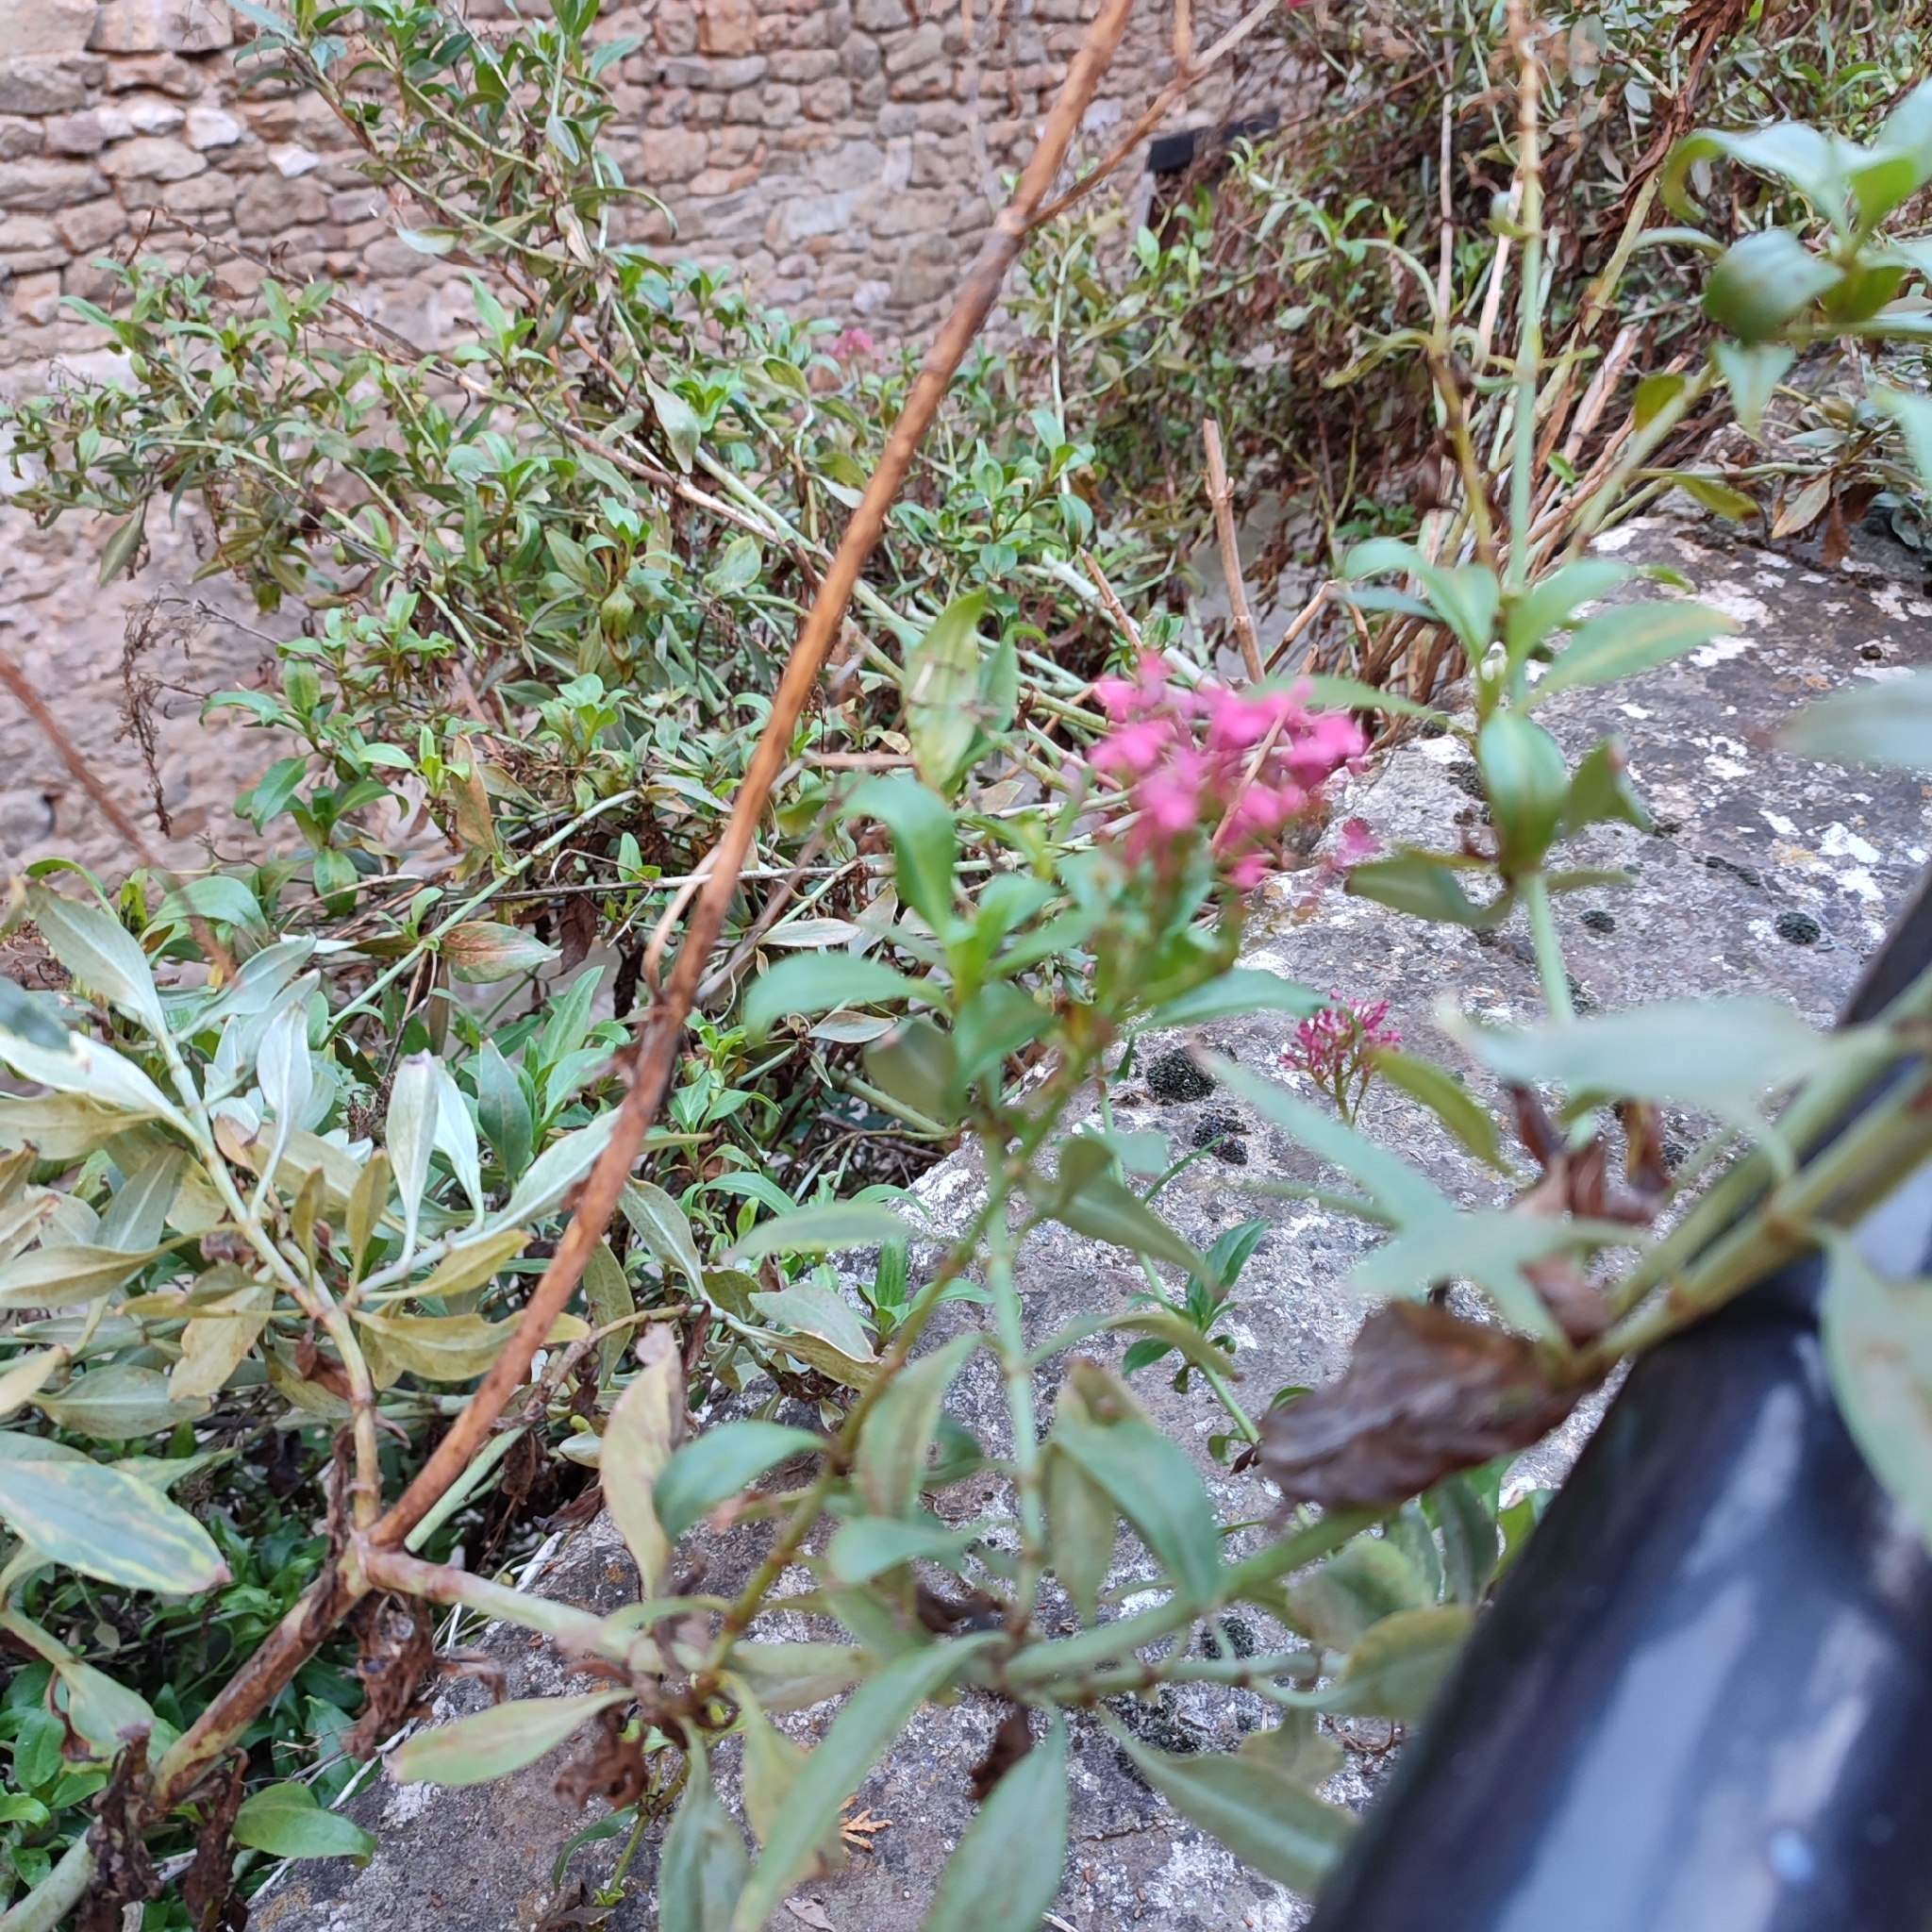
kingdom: Plantae
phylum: Tracheophyta
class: Magnoliopsida
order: Dipsacales
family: Caprifoliaceae
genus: Centranthus
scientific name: Centranthus ruber
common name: Red valerian
